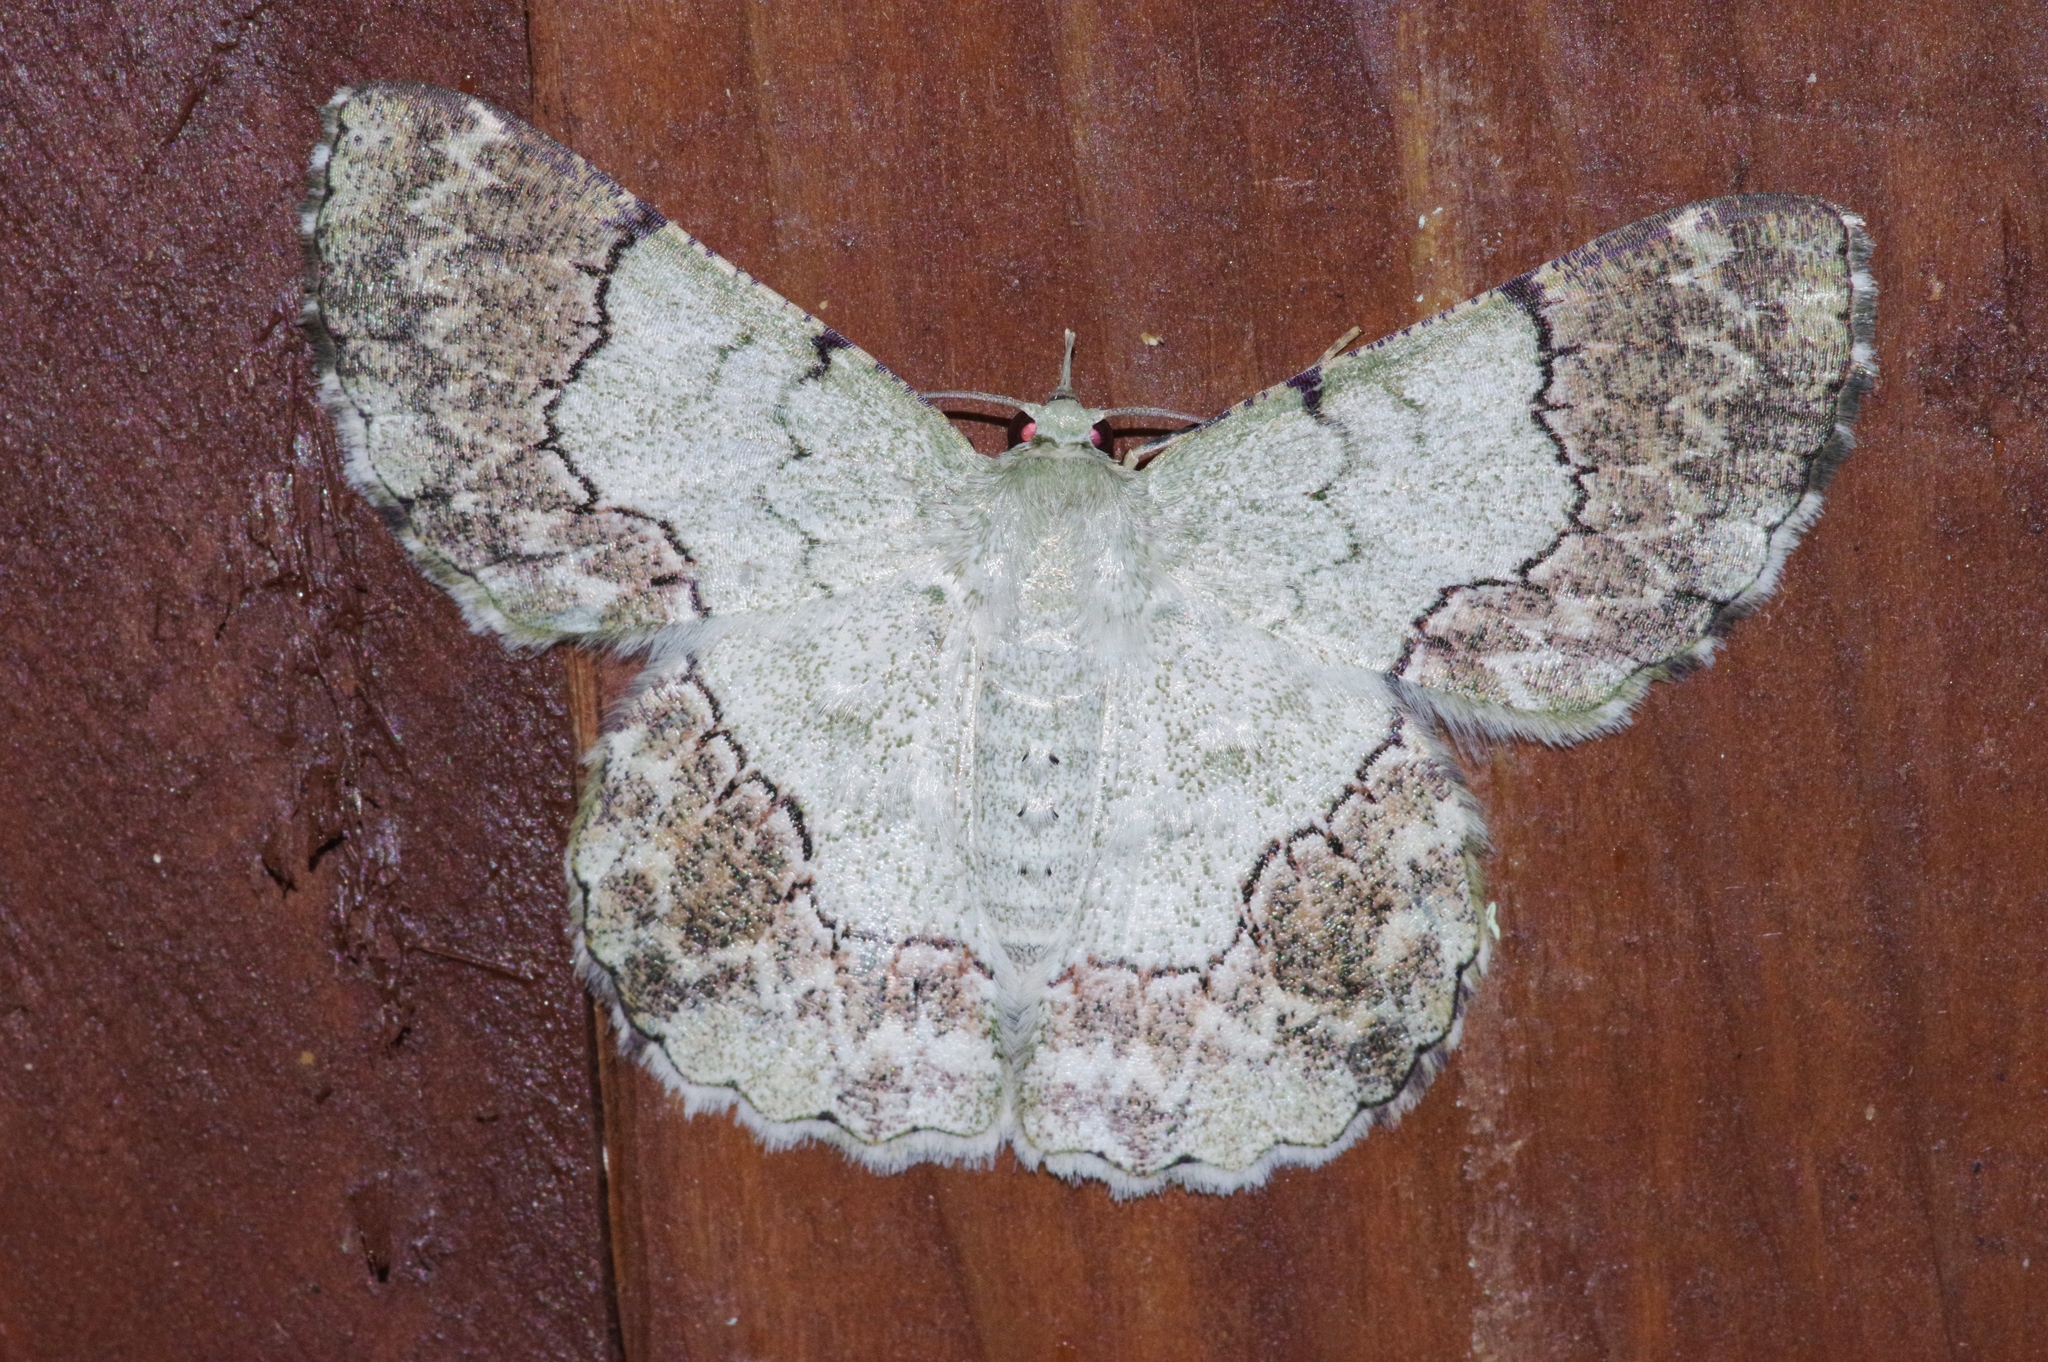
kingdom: Animalia
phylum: Arthropoda
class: Insecta
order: Lepidoptera
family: Geometridae
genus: Pingasa
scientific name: Pingasa ruginaria
